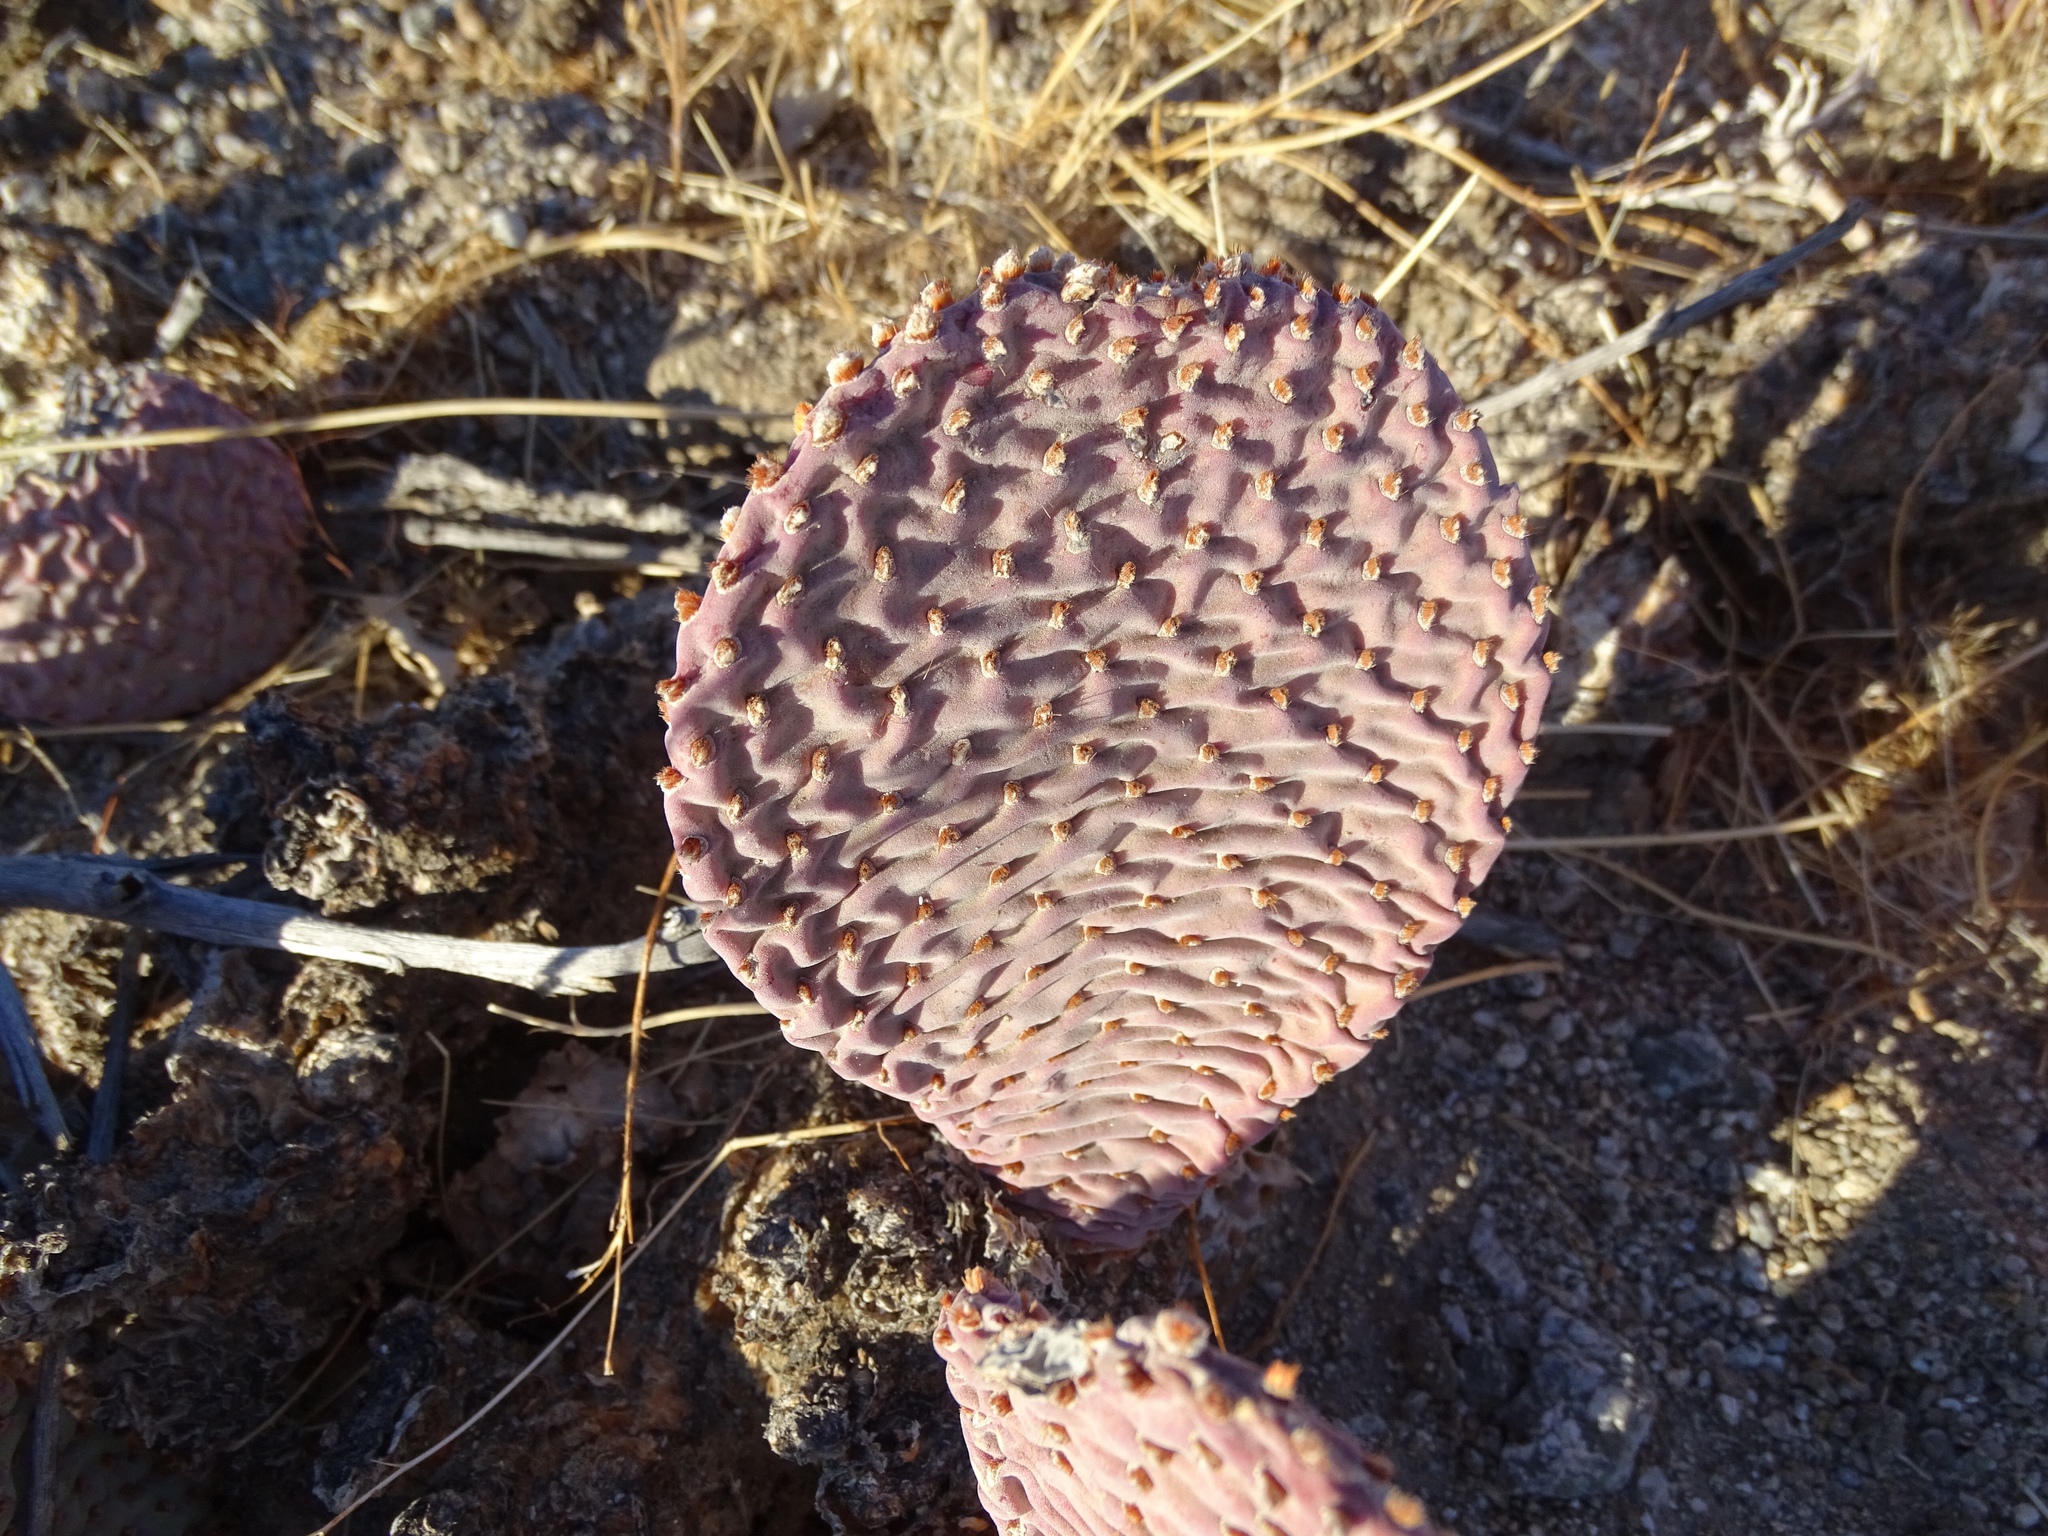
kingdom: Plantae
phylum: Tracheophyta
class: Magnoliopsida
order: Caryophyllales
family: Cactaceae
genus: Opuntia
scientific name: Opuntia basilaris
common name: Beavertail prickly-pear
